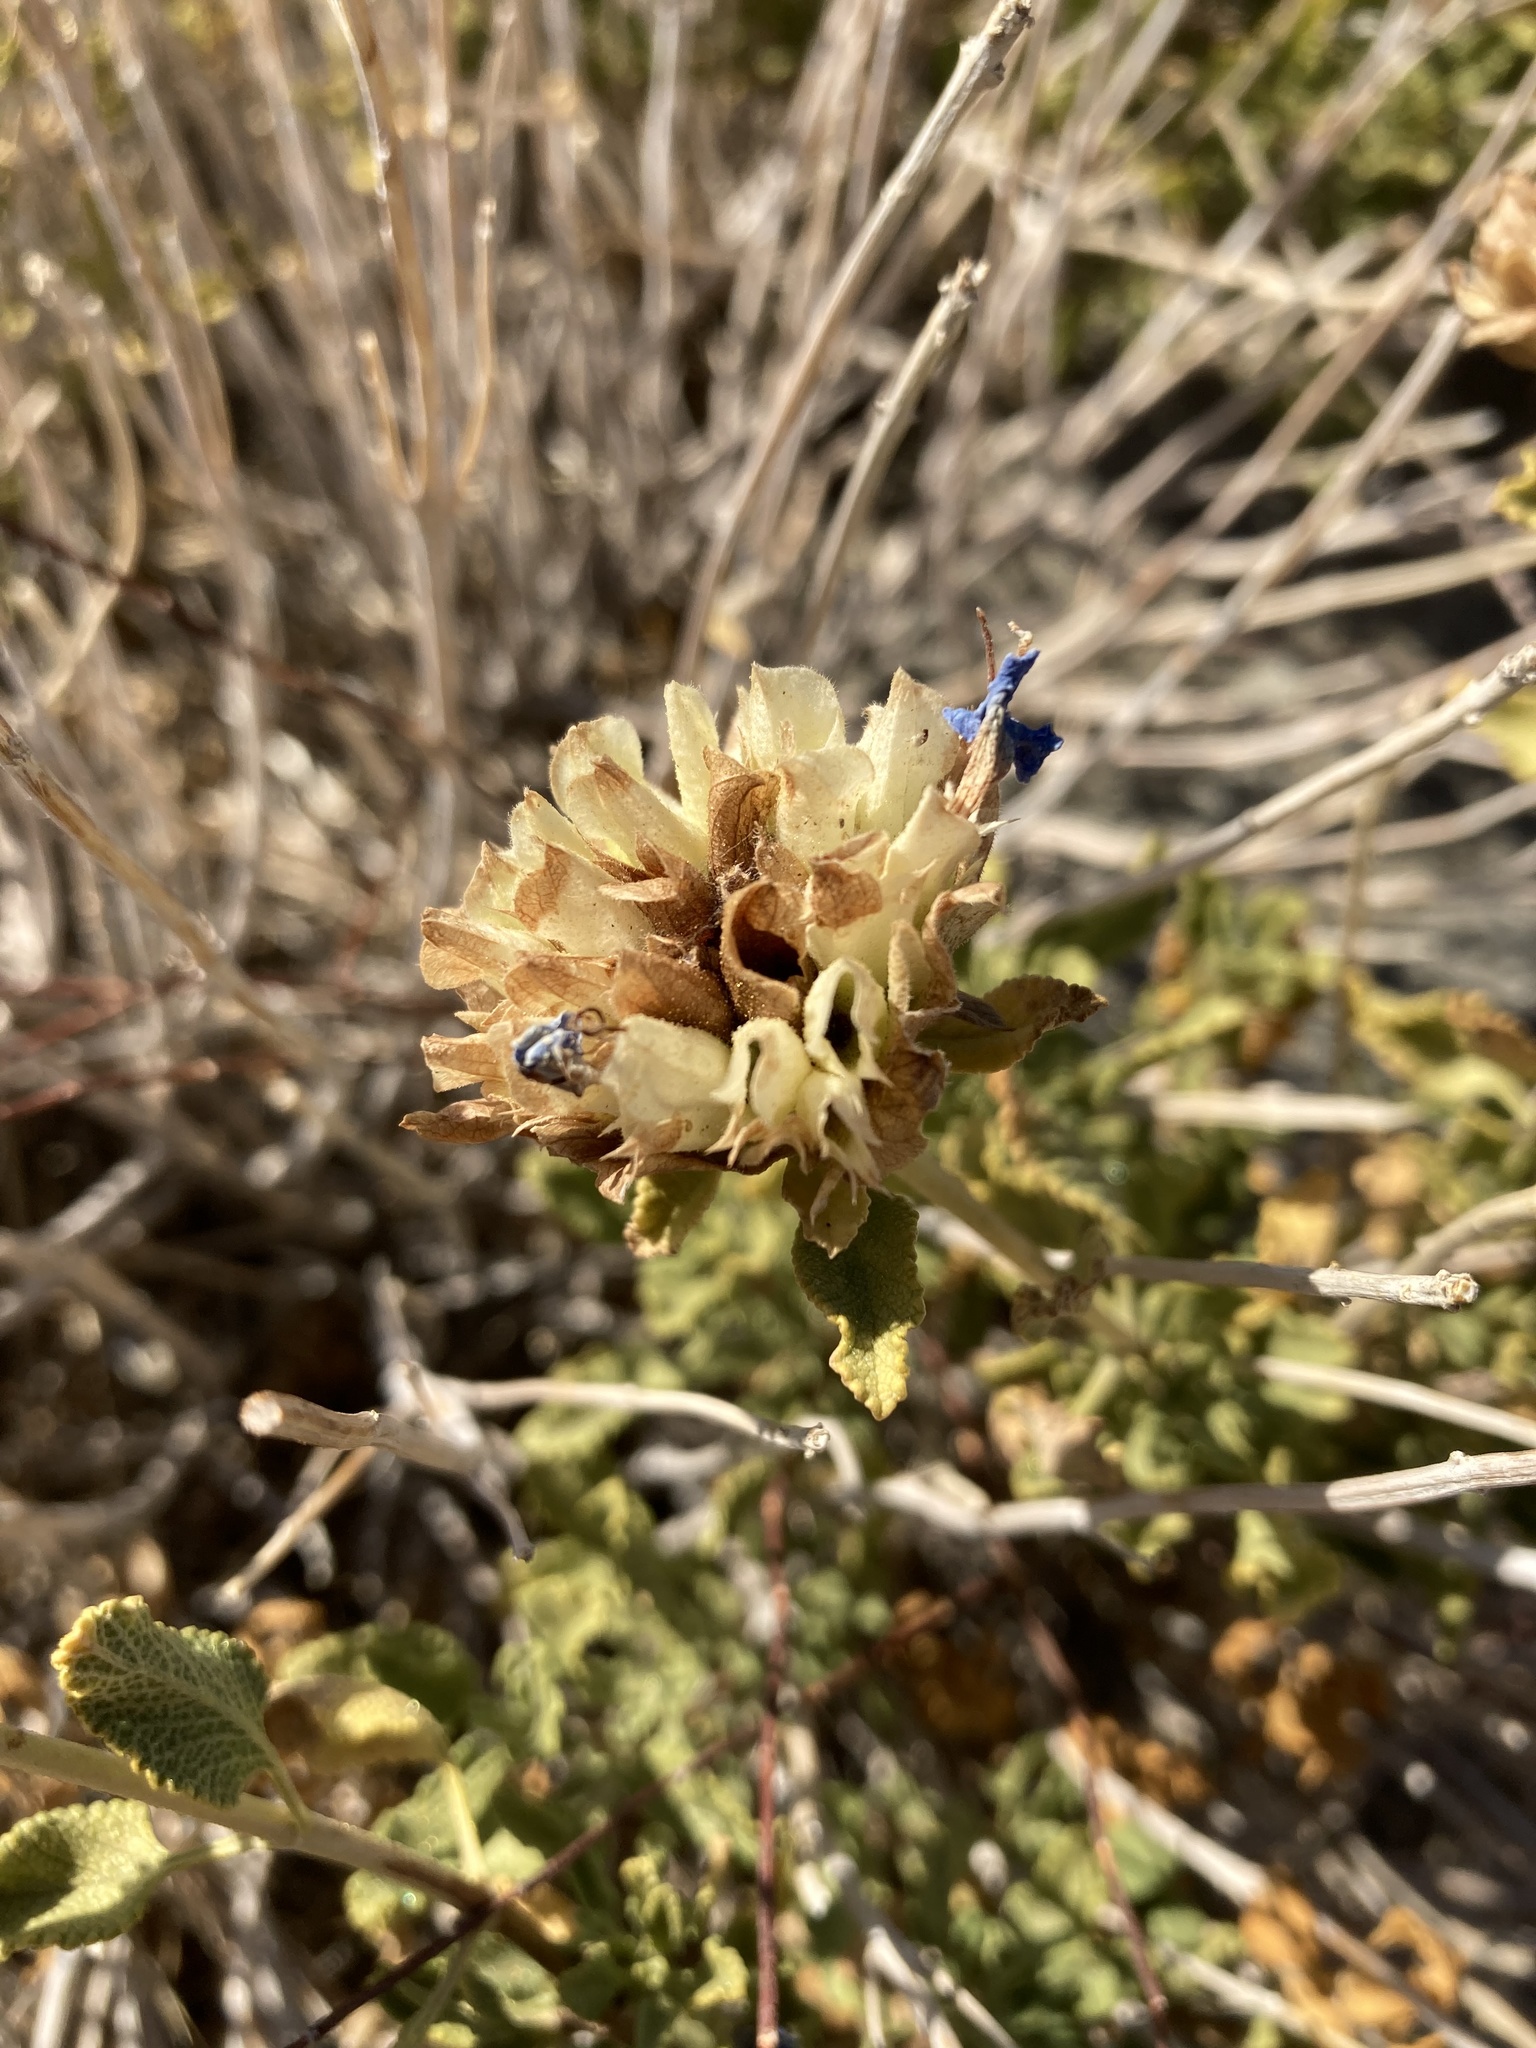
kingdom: Plantae
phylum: Tracheophyta
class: Magnoliopsida
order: Lamiales
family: Lamiaceae
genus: Salvia
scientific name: Salvia mohavensis
